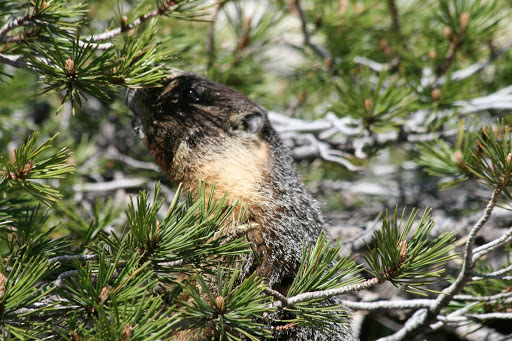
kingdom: Animalia
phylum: Chordata
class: Mammalia
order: Rodentia
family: Sciuridae
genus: Marmota
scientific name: Marmota flaviventris
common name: Yellow-bellied marmot
